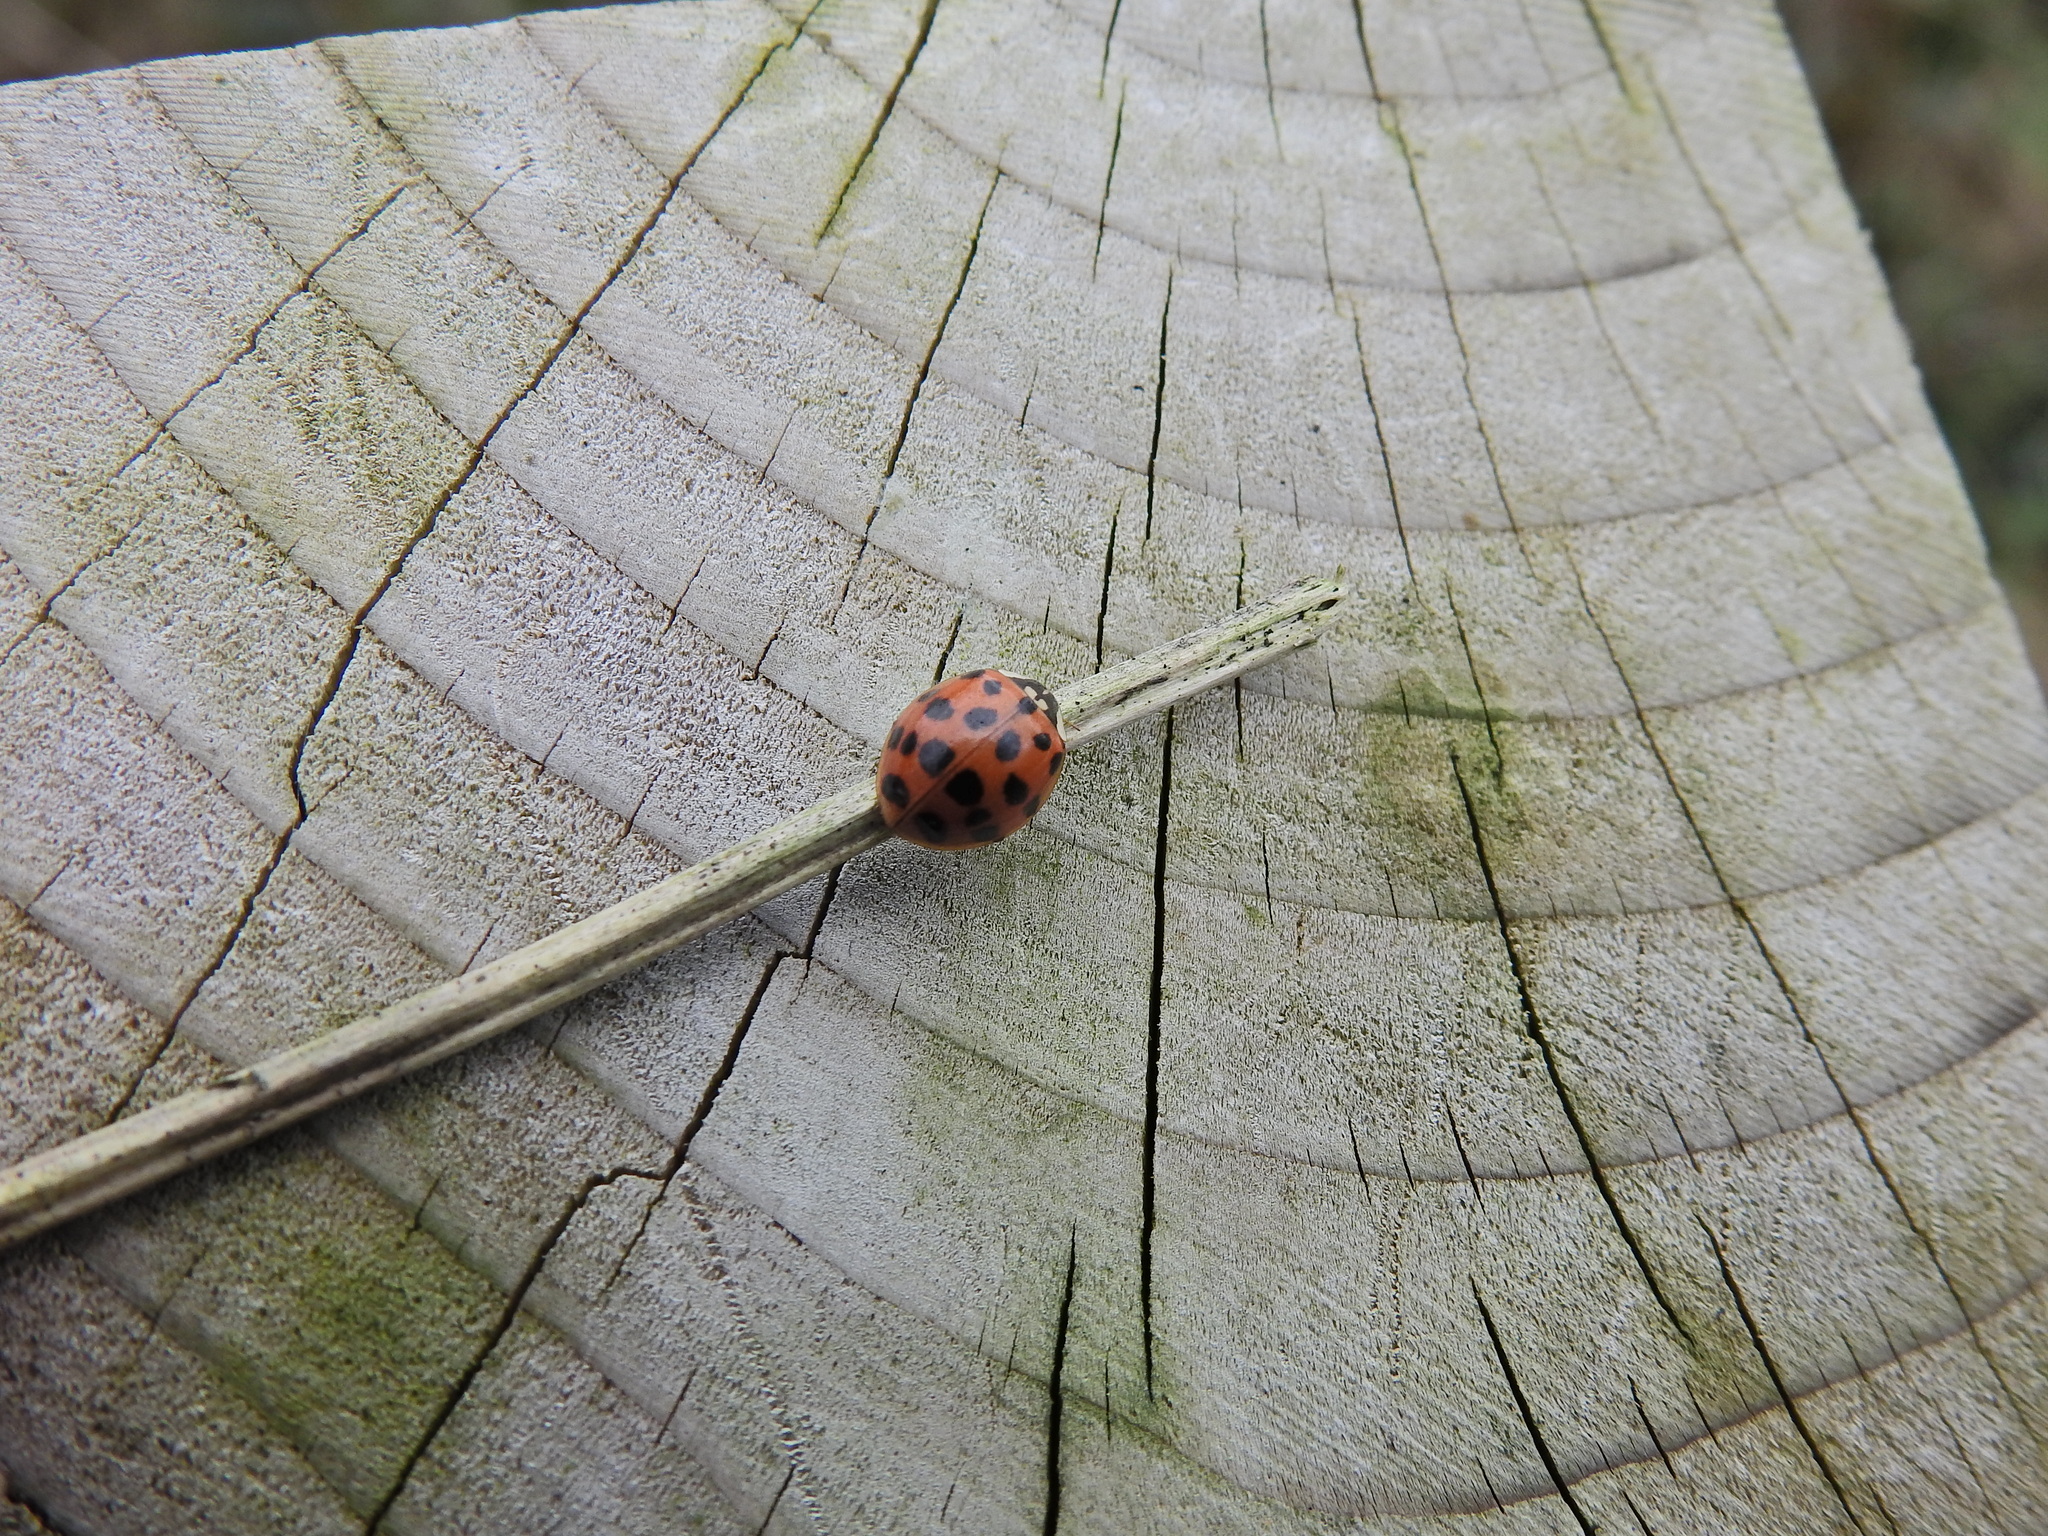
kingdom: Animalia
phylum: Arthropoda
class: Insecta
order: Coleoptera
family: Coccinellidae
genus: Harmonia
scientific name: Harmonia axyridis
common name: Harlequin ladybird
